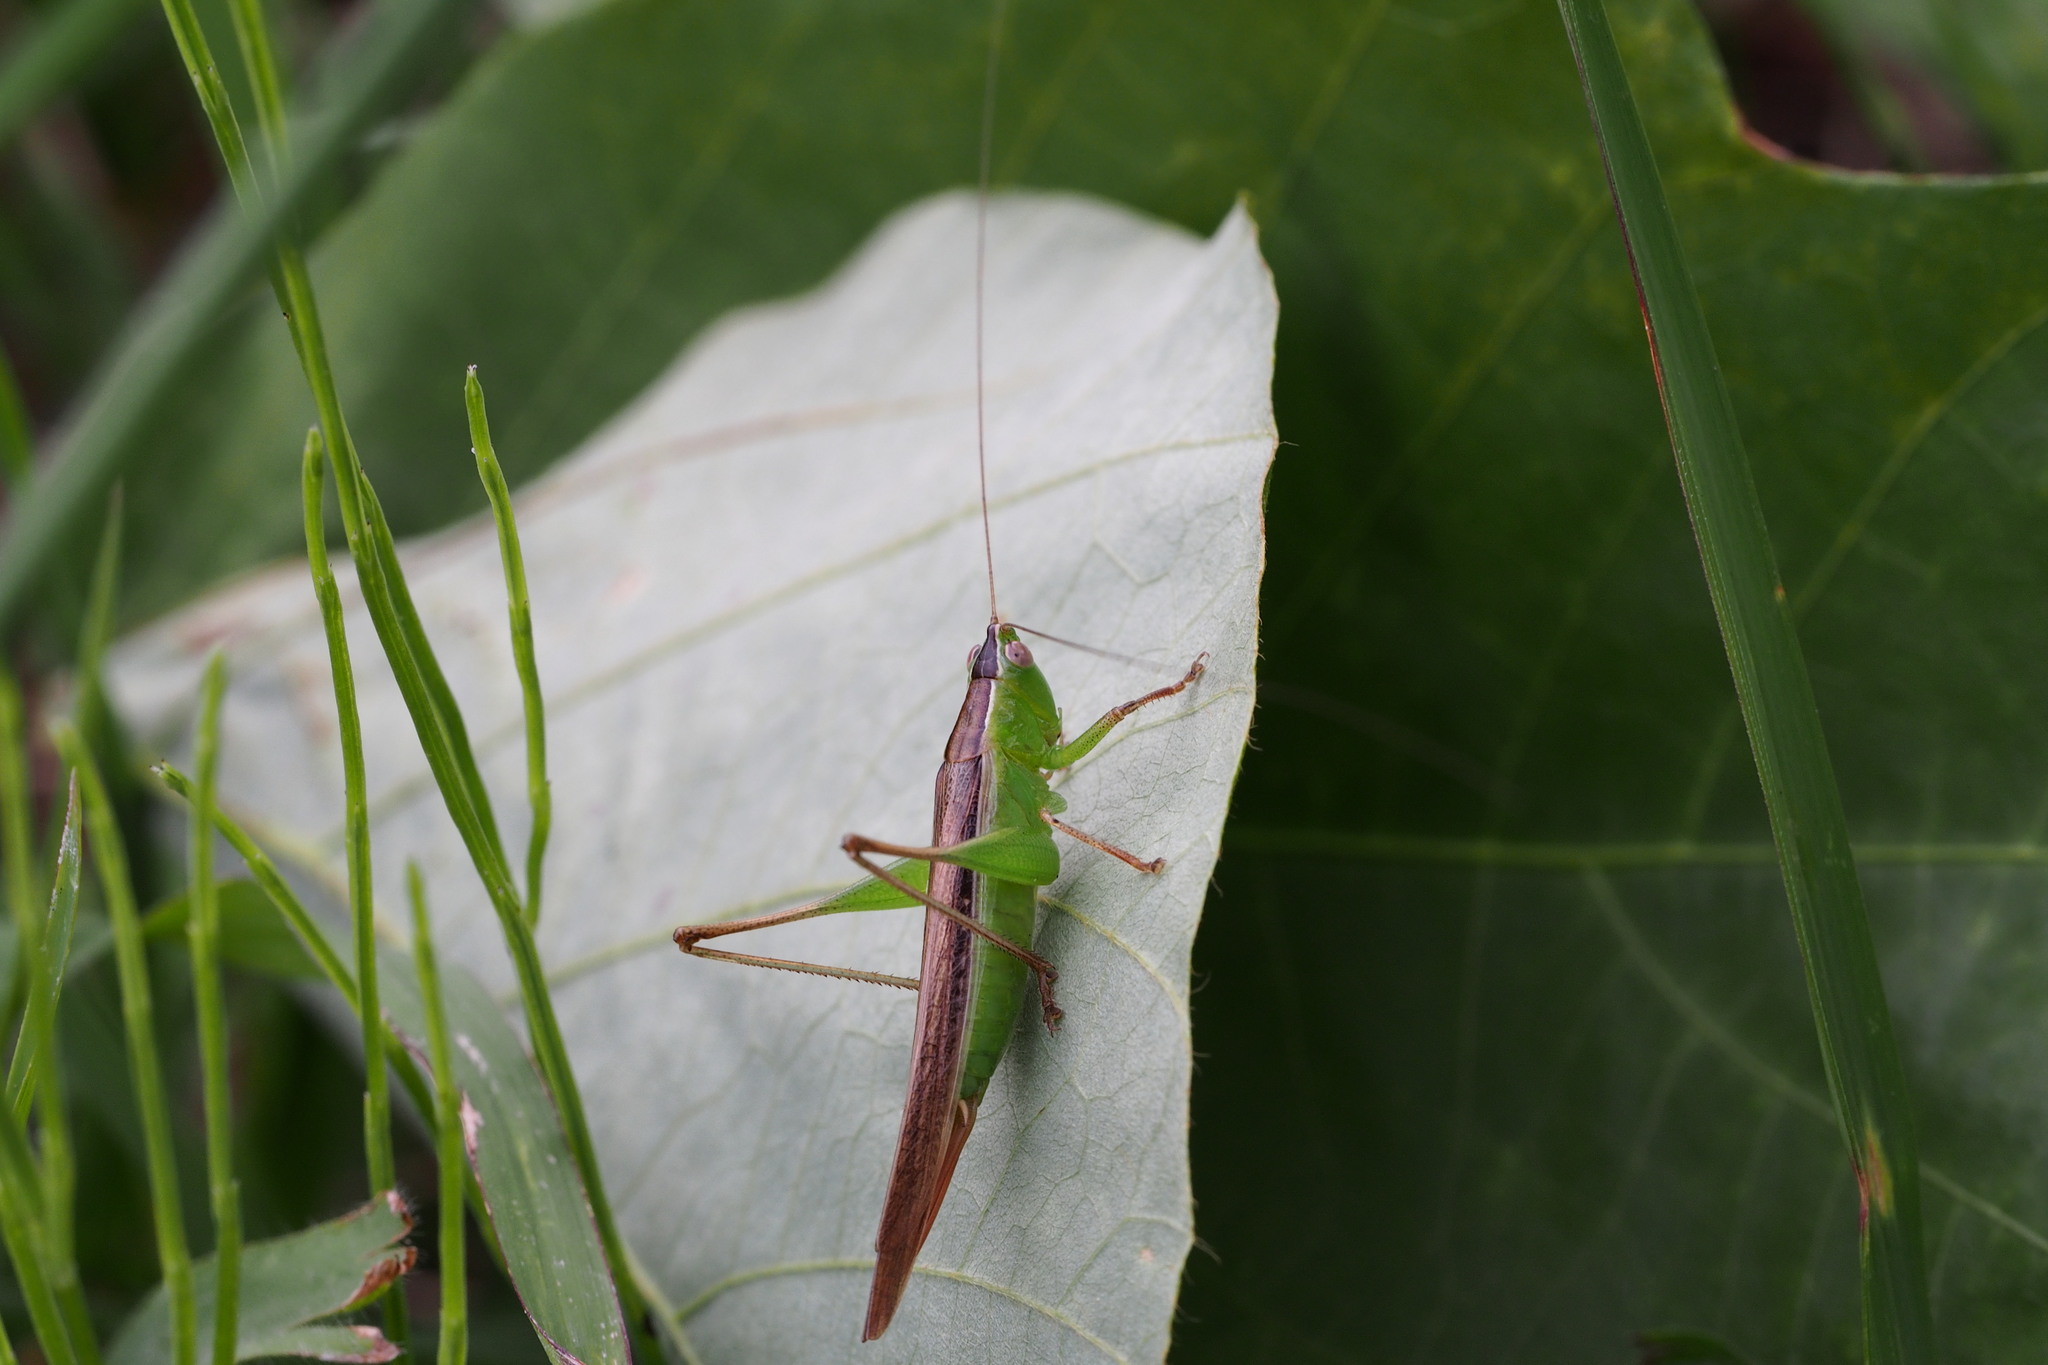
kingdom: Animalia
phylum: Arthropoda
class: Insecta
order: Orthoptera
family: Tettigoniidae
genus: Conocephalus
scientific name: Conocephalus maculatus
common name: Spotted meadow katydid
